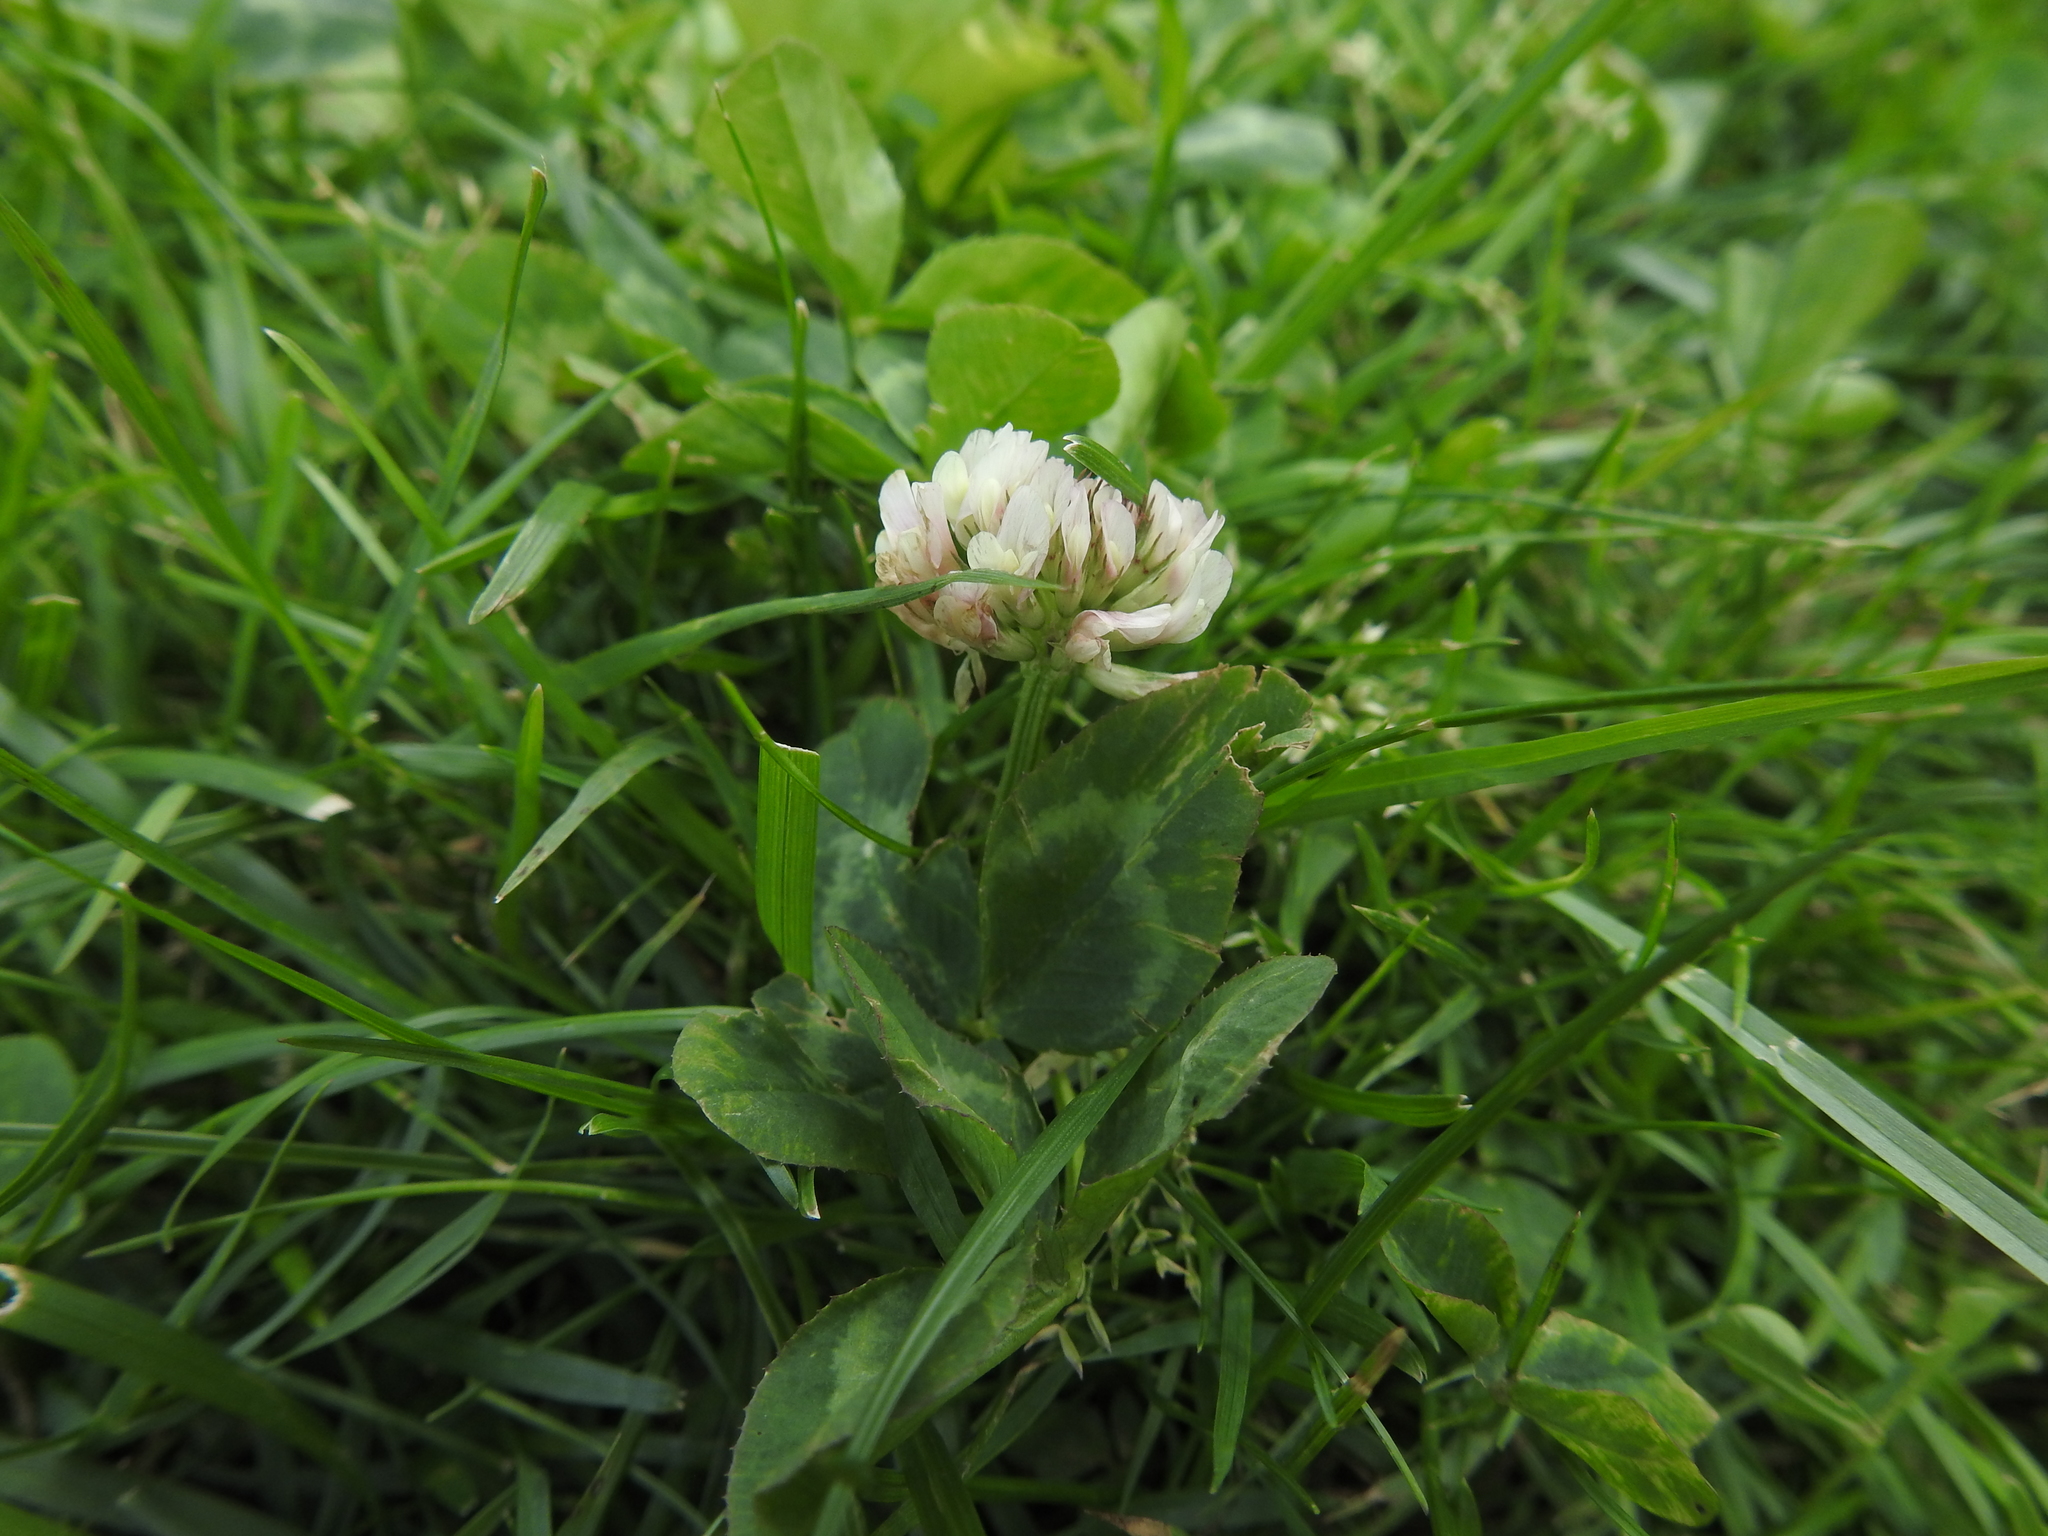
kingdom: Plantae
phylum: Tracheophyta
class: Magnoliopsida
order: Fabales
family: Fabaceae
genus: Trifolium
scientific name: Trifolium repens
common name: White clover
